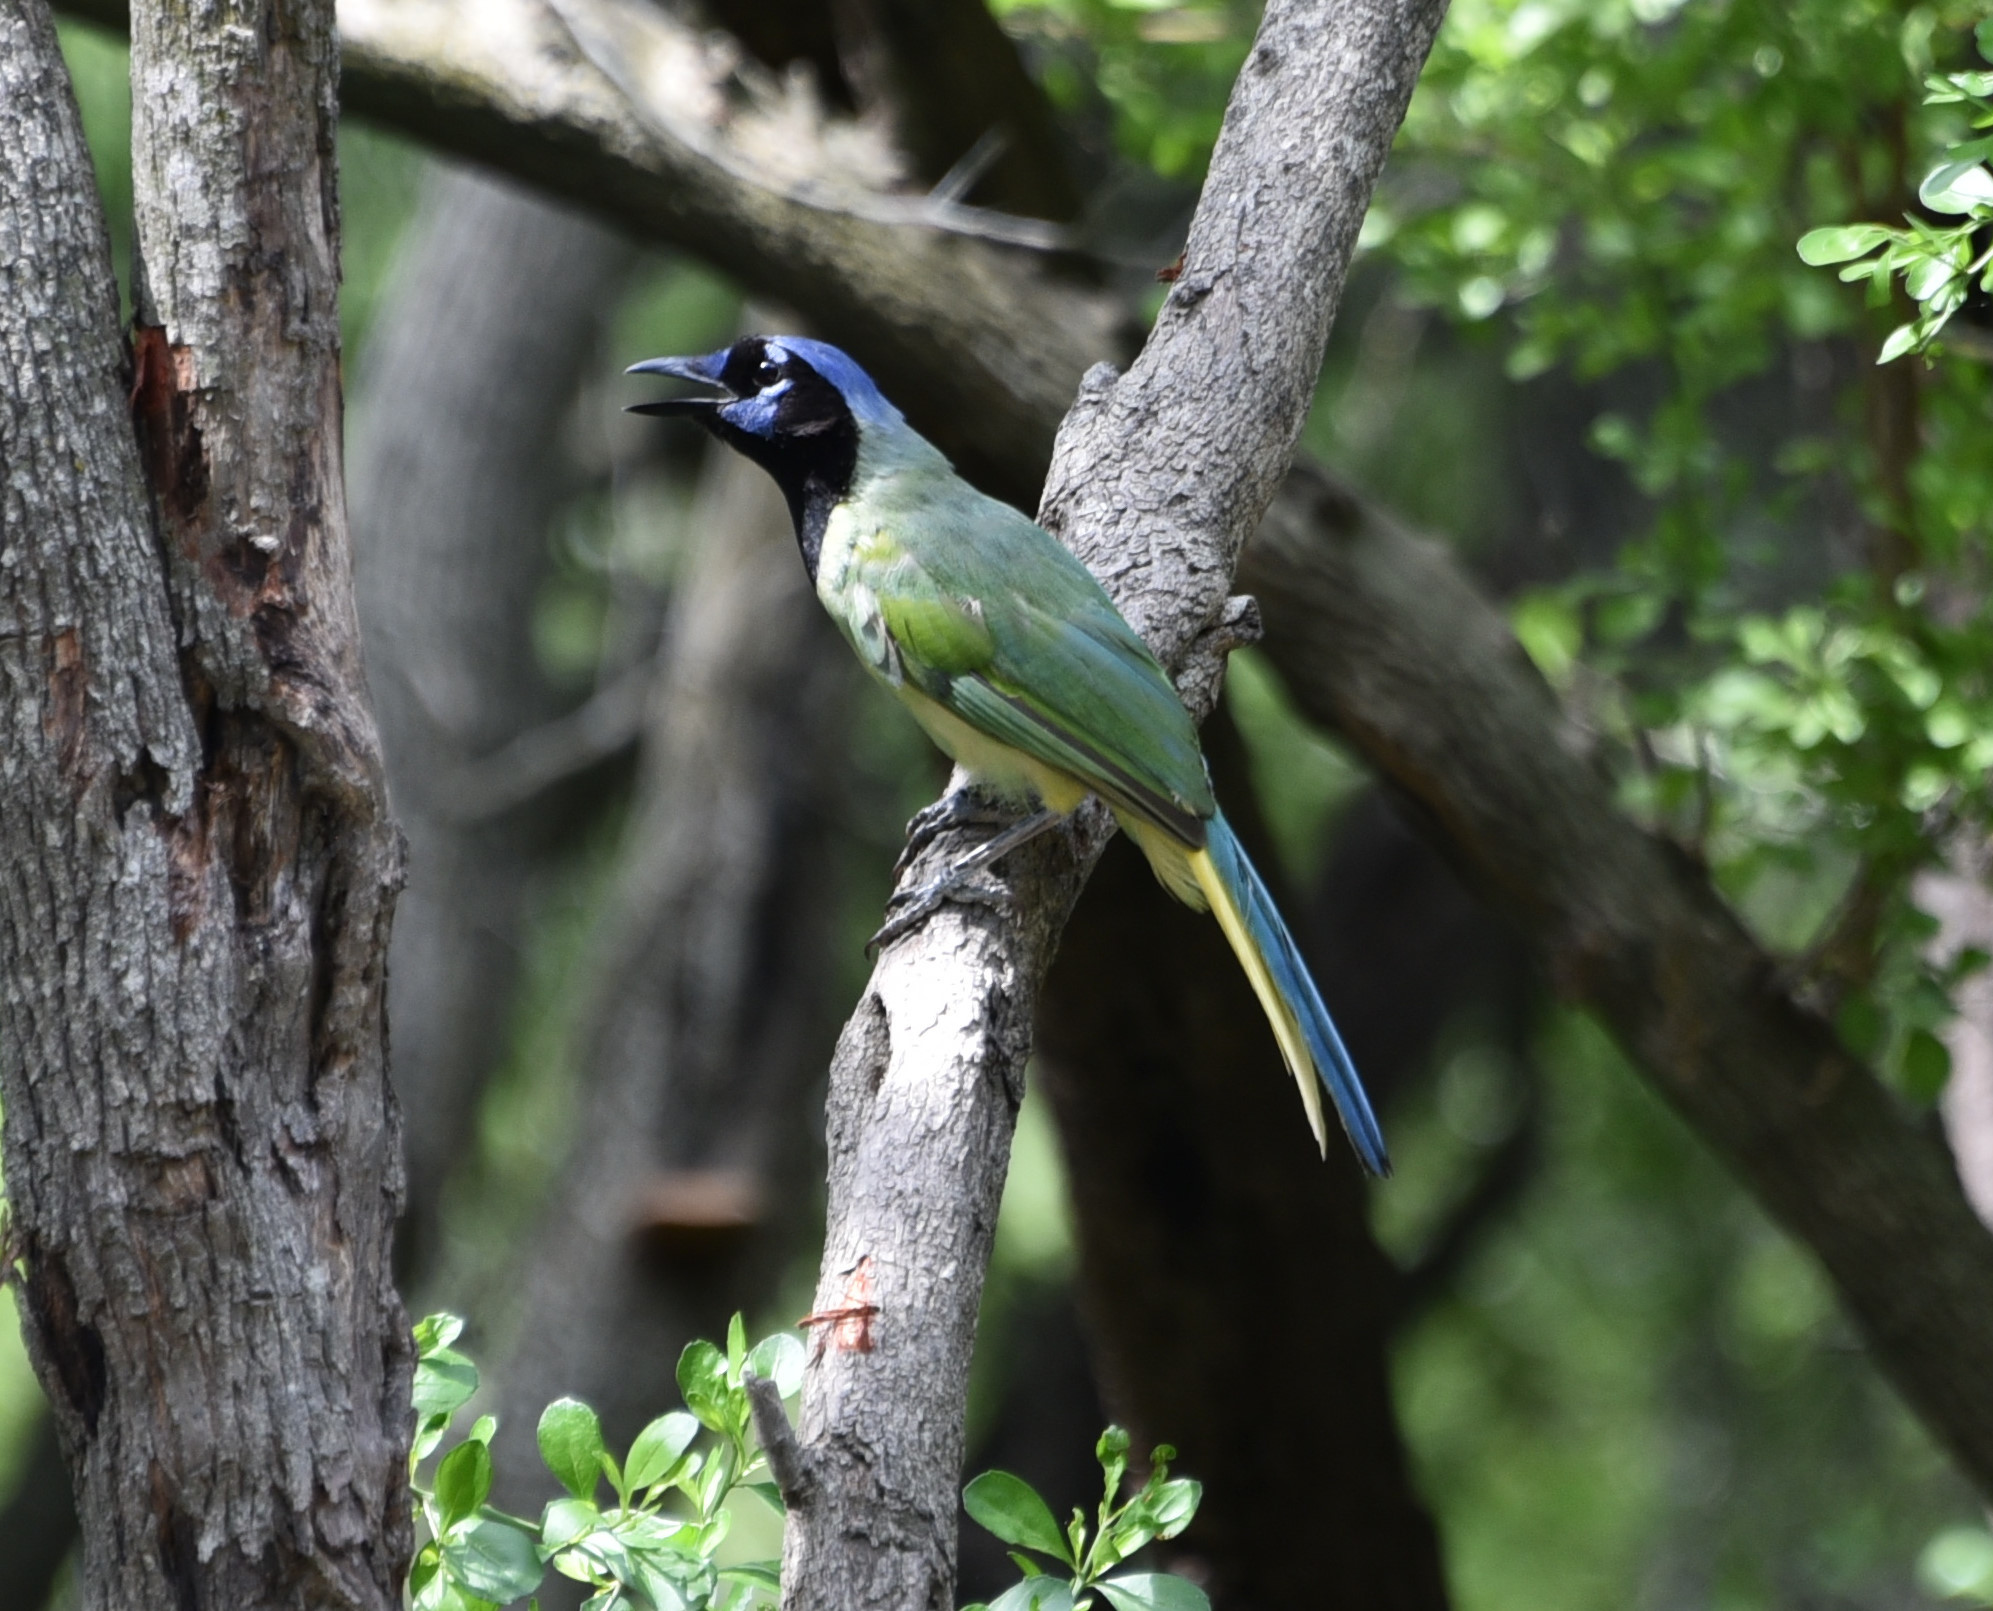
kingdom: Animalia
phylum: Chordata
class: Aves
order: Passeriformes
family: Corvidae
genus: Cyanocorax
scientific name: Cyanocorax yncas
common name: Green jay
